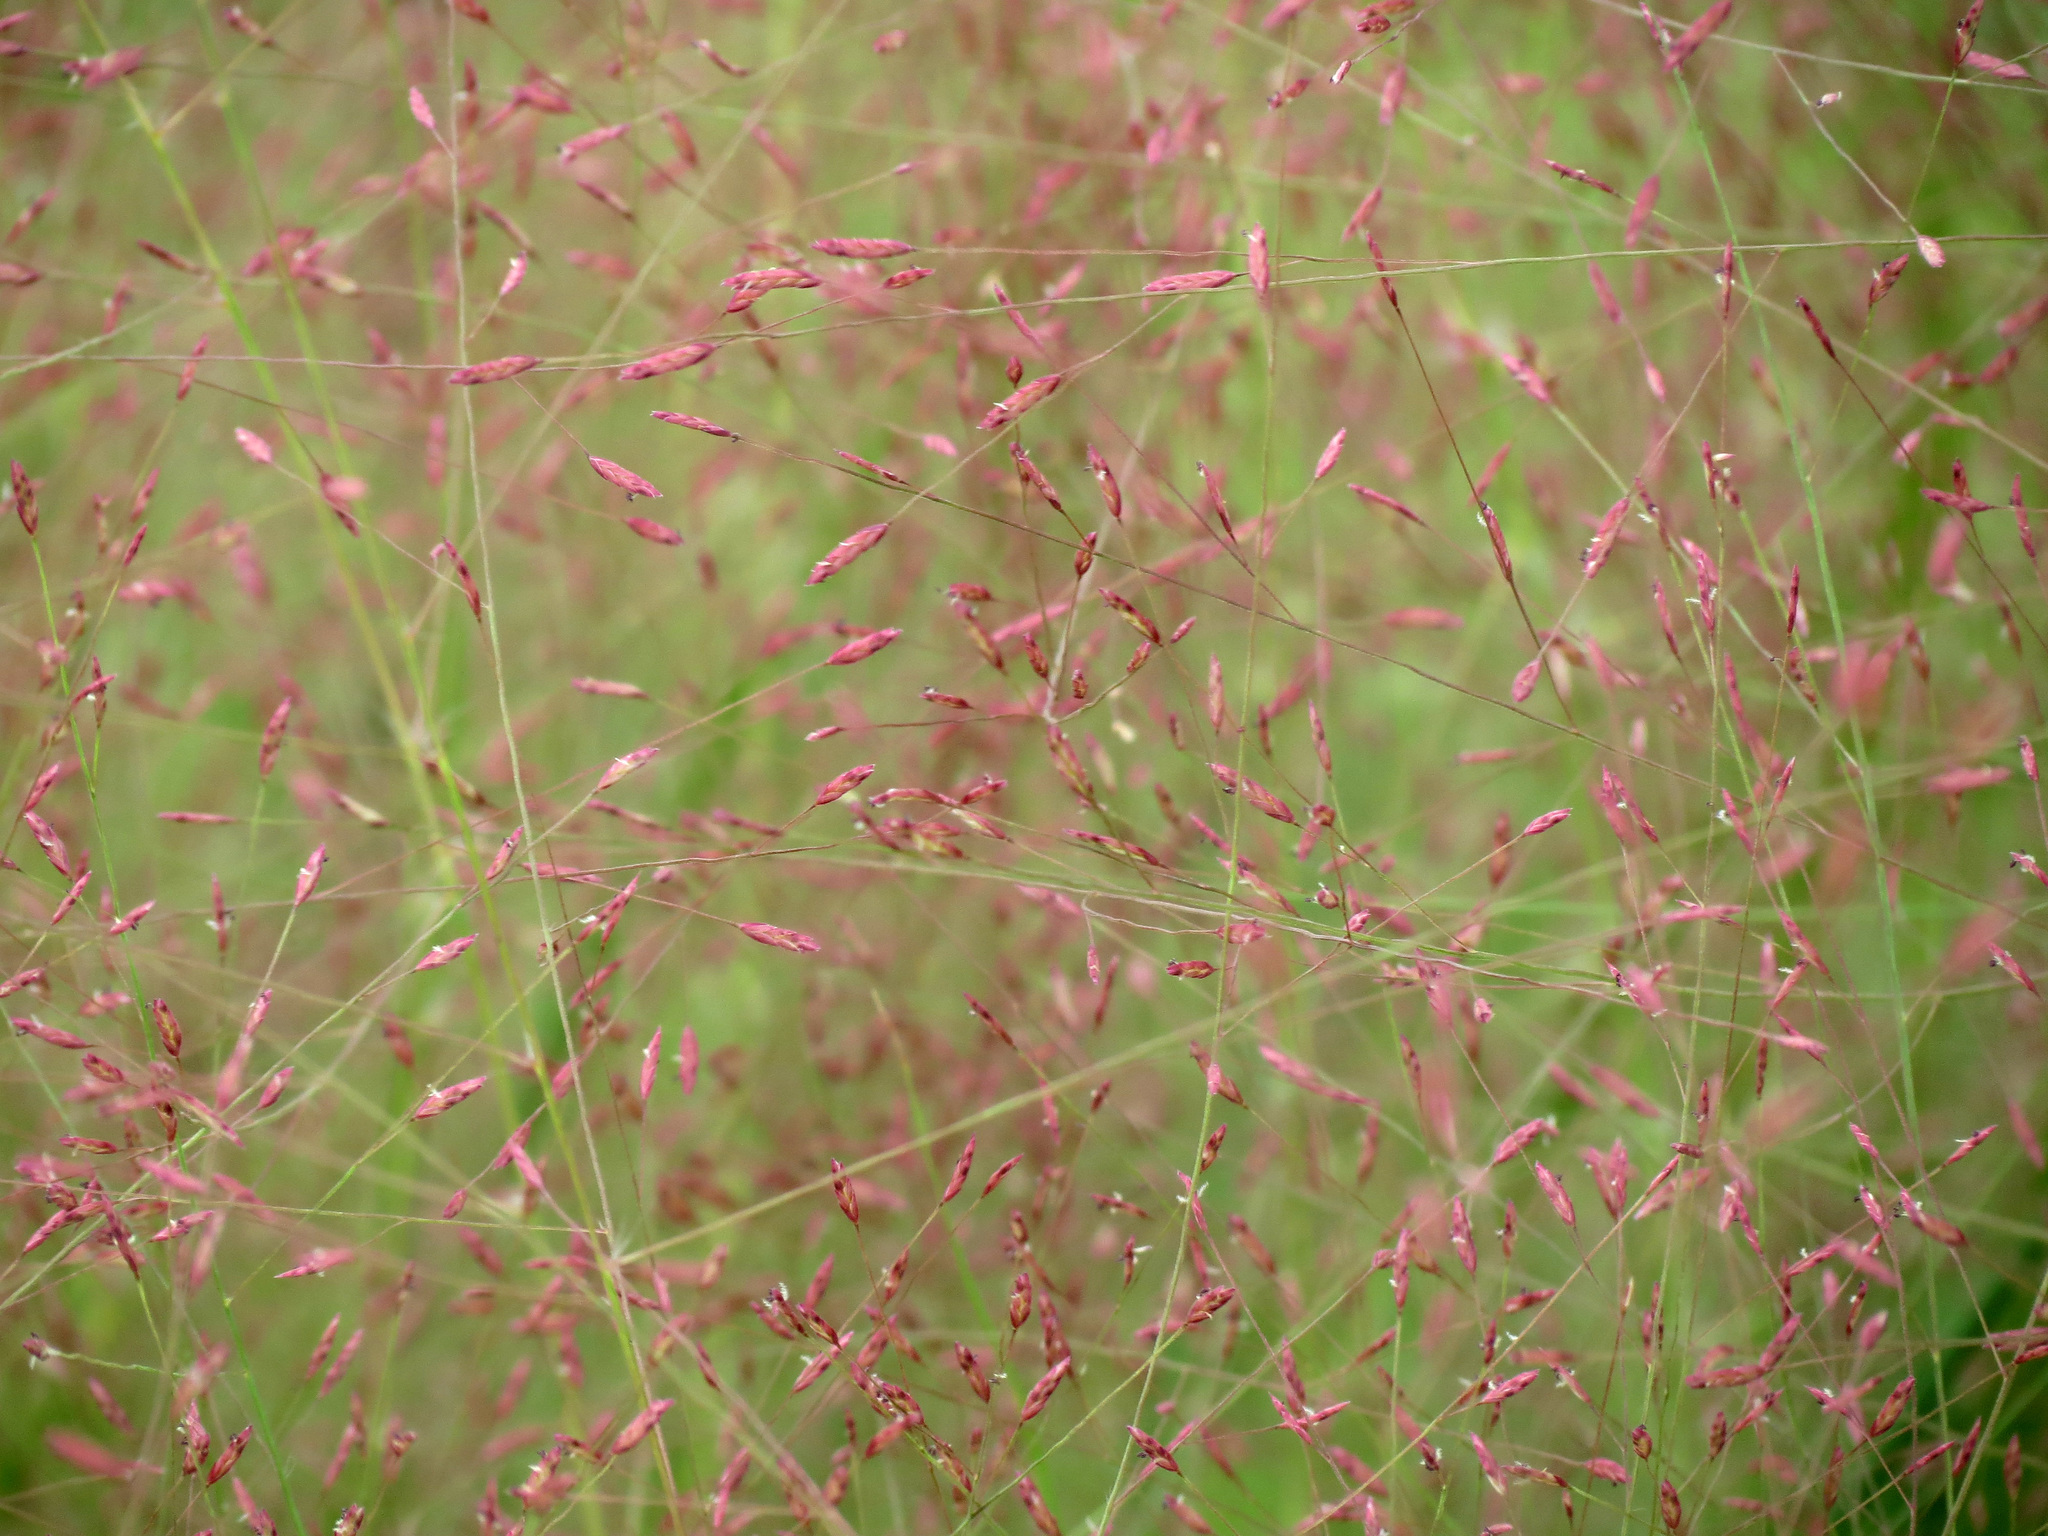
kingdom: Plantae
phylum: Tracheophyta
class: Liliopsida
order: Poales
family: Poaceae
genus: Eragrostis
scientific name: Eragrostis spectabilis
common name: Petticoat-climber
